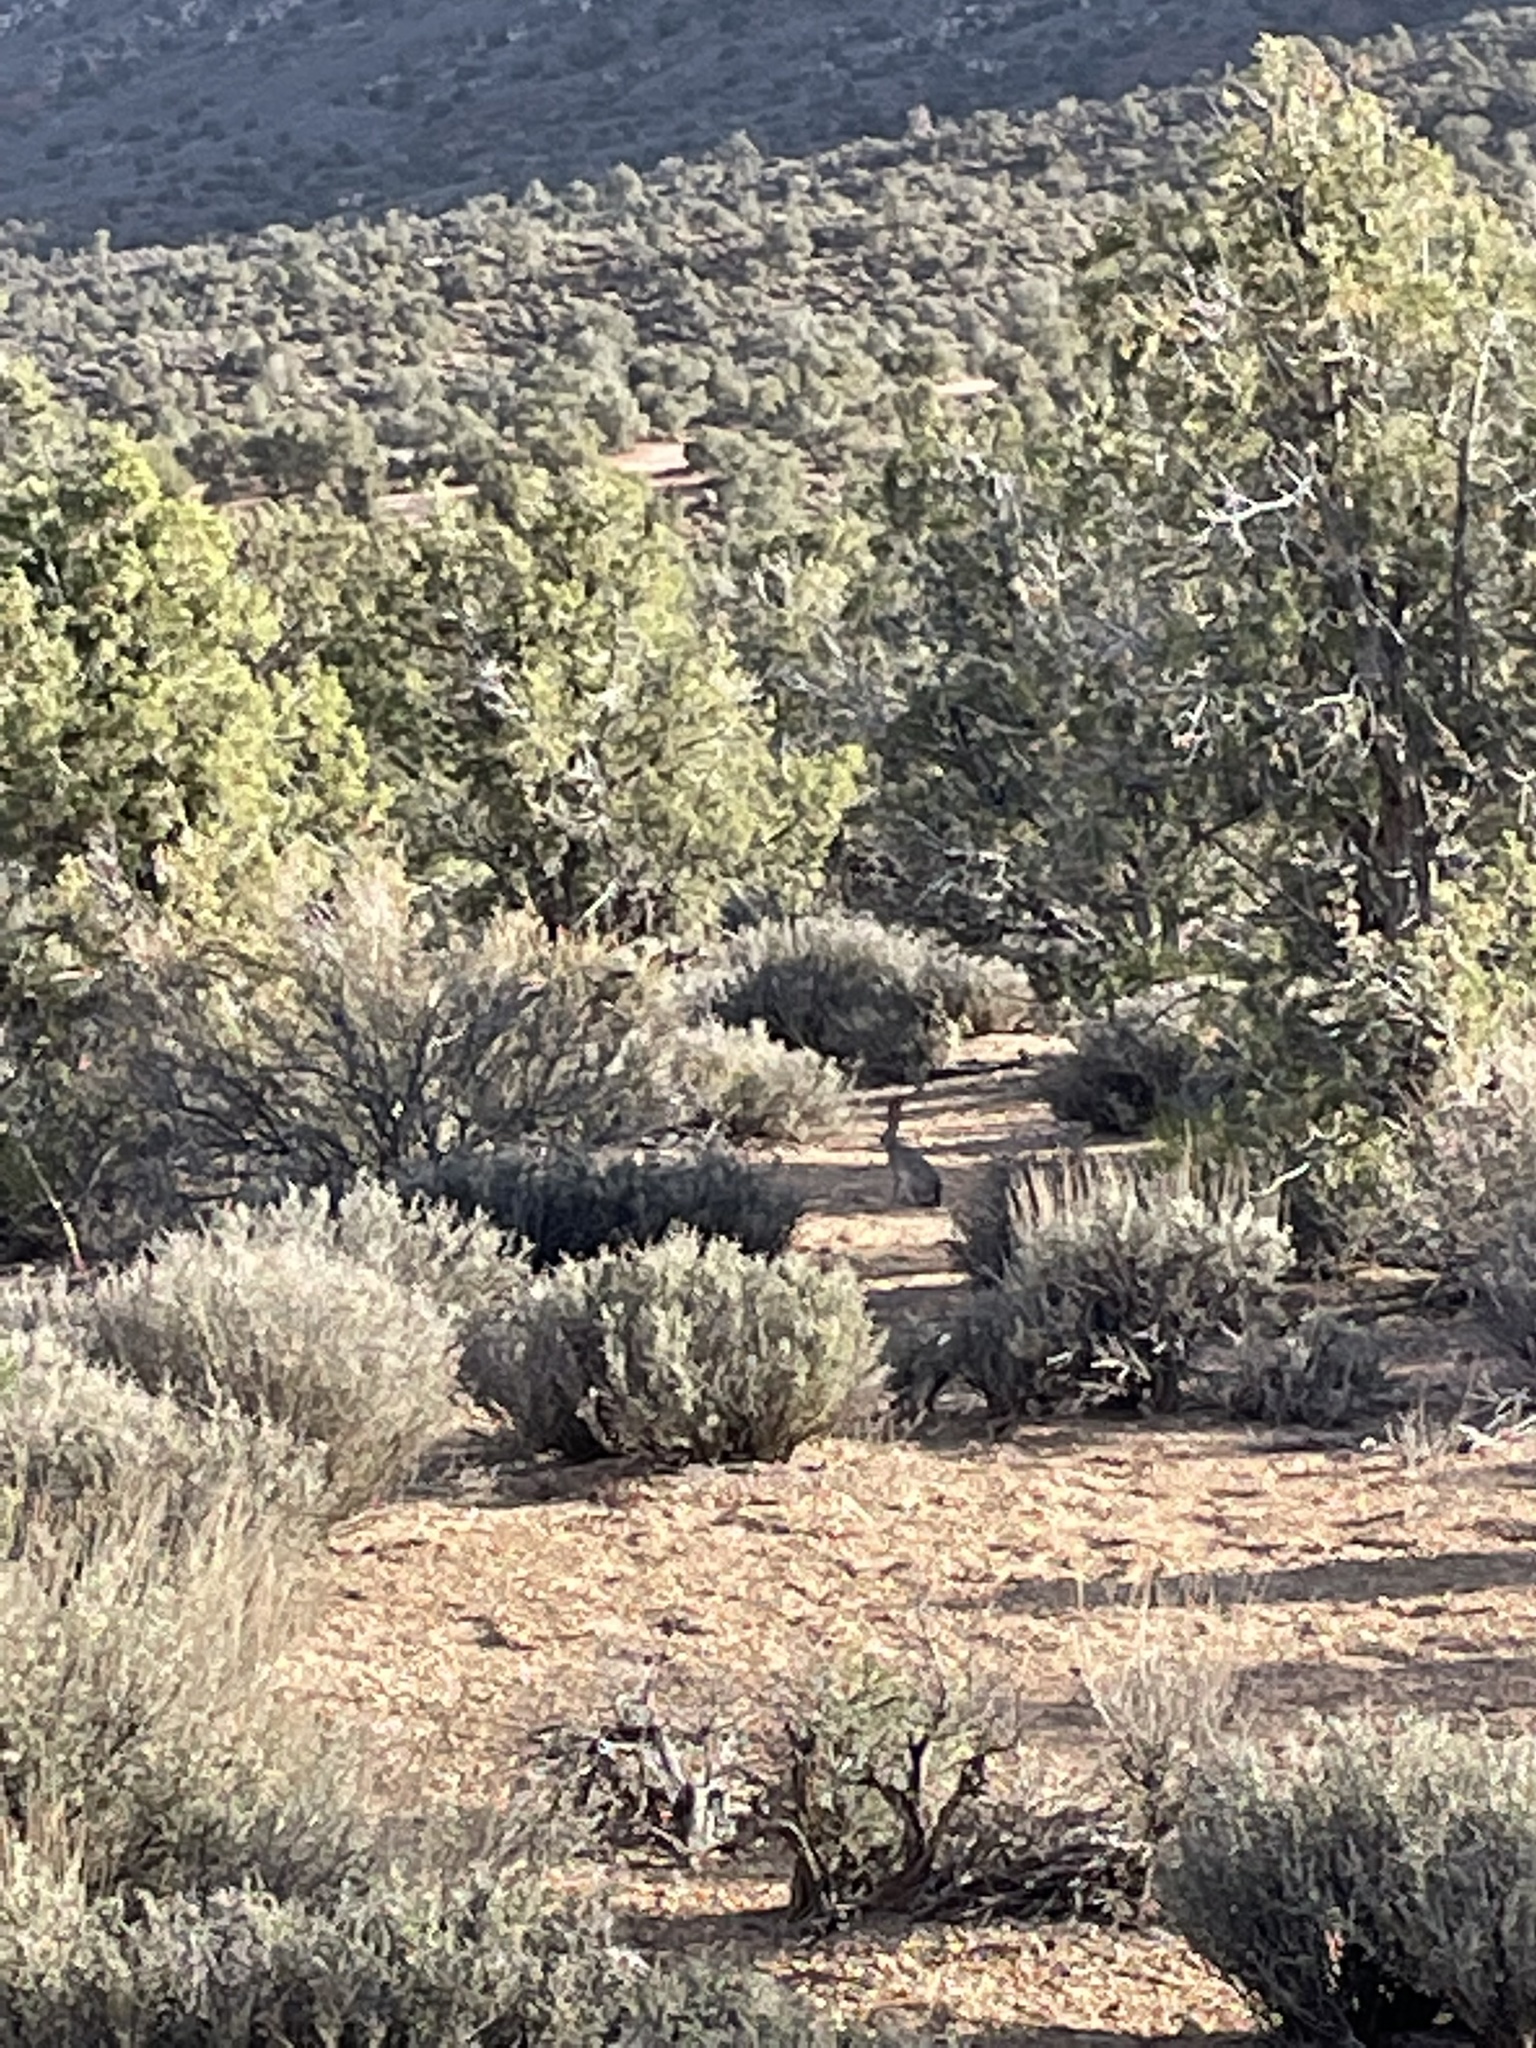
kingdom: Animalia
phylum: Chordata
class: Mammalia
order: Lagomorpha
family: Leporidae
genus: Lepus
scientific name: Lepus californicus
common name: Black-tailed jackrabbit
